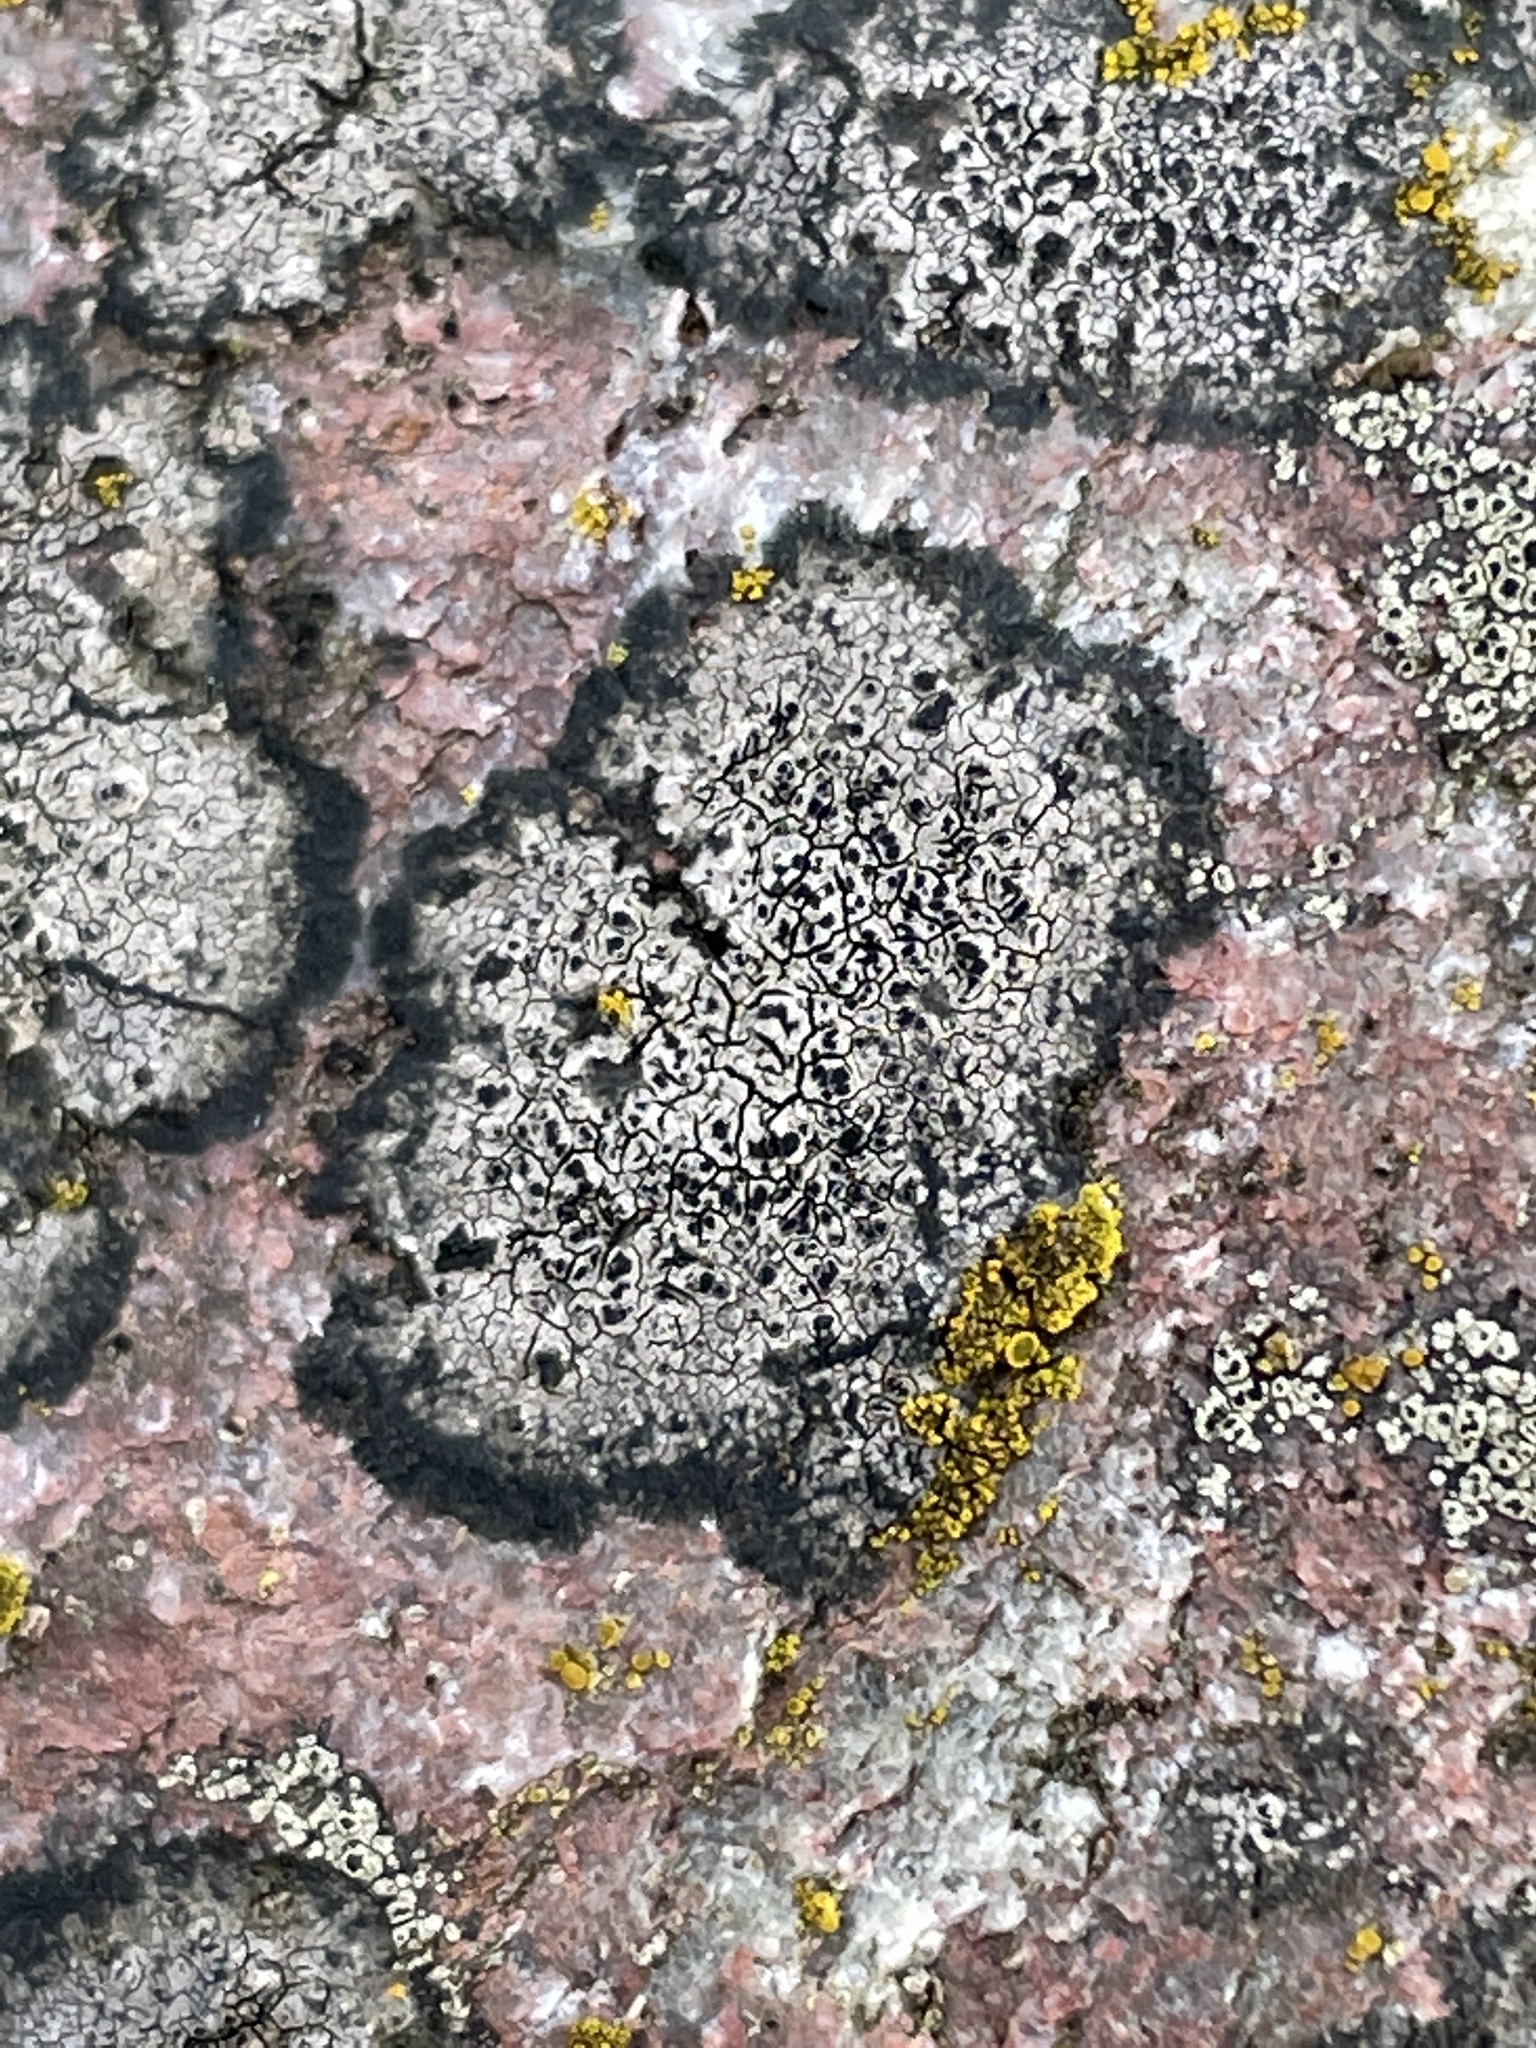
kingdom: Fungi
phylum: Ascomycota
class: Lecanoromycetes
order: Caliciales
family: Caliciaceae
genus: Buellia
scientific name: Buellia aethalea
